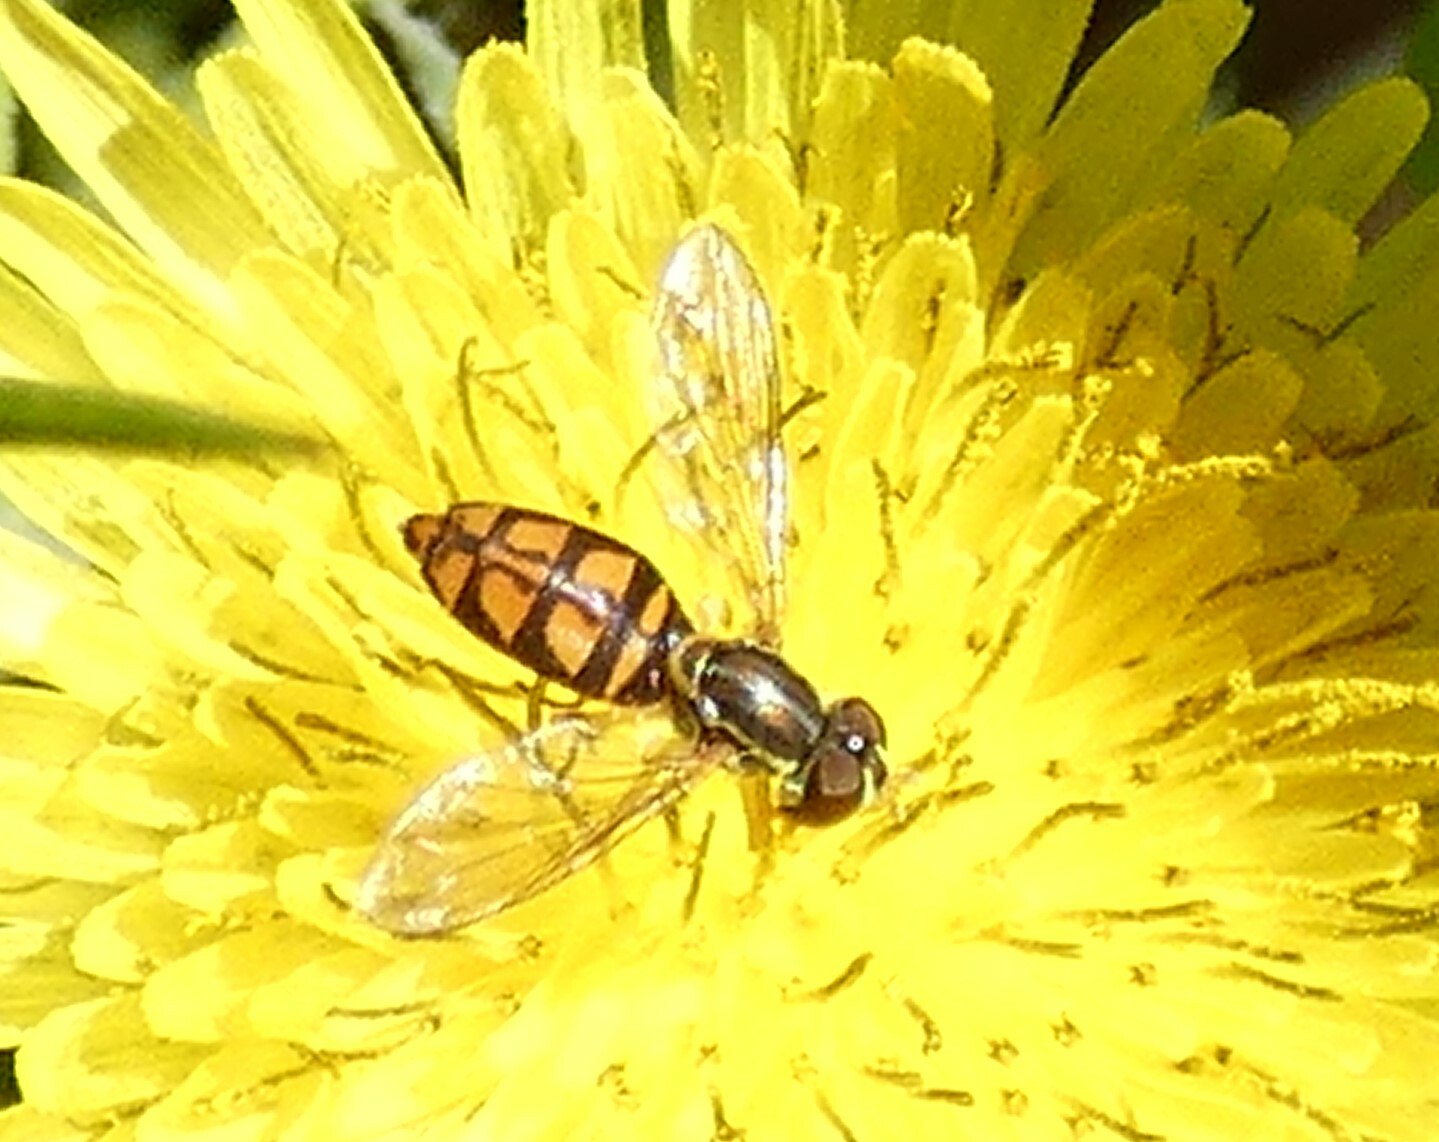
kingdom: Animalia
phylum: Arthropoda
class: Insecta
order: Diptera
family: Syrphidae
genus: Toxomerus
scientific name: Toxomerus marginatus
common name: Syrphid fly
